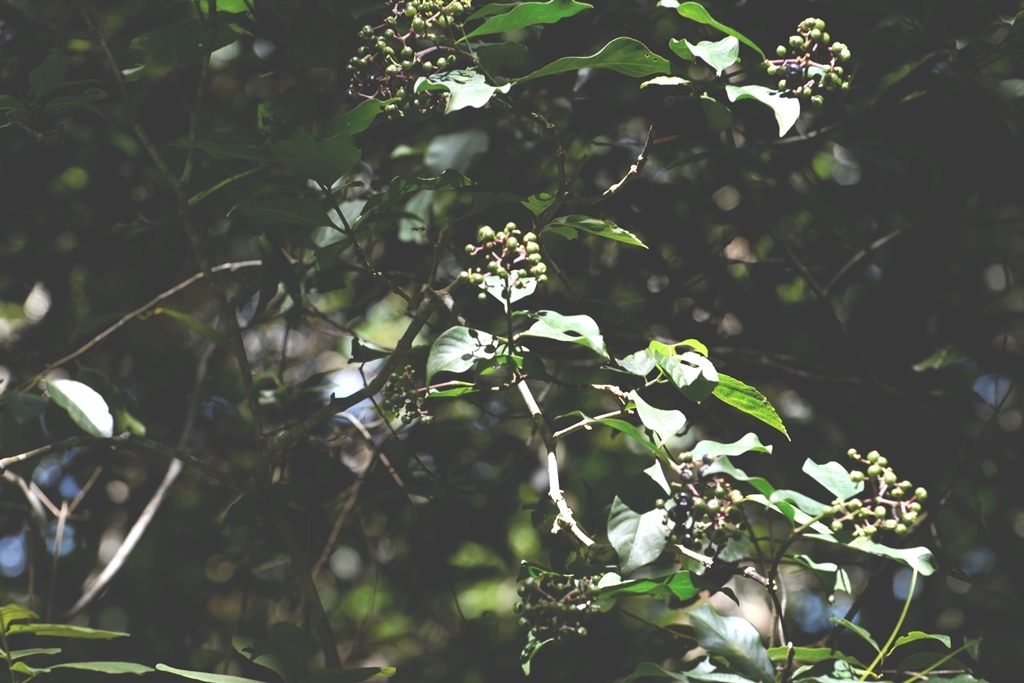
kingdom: Plantae
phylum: Tracheophyta
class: Magnoliopsida
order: Gentianales
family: Rubiaceae
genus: Palicourea
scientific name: Palicourea pubescens
